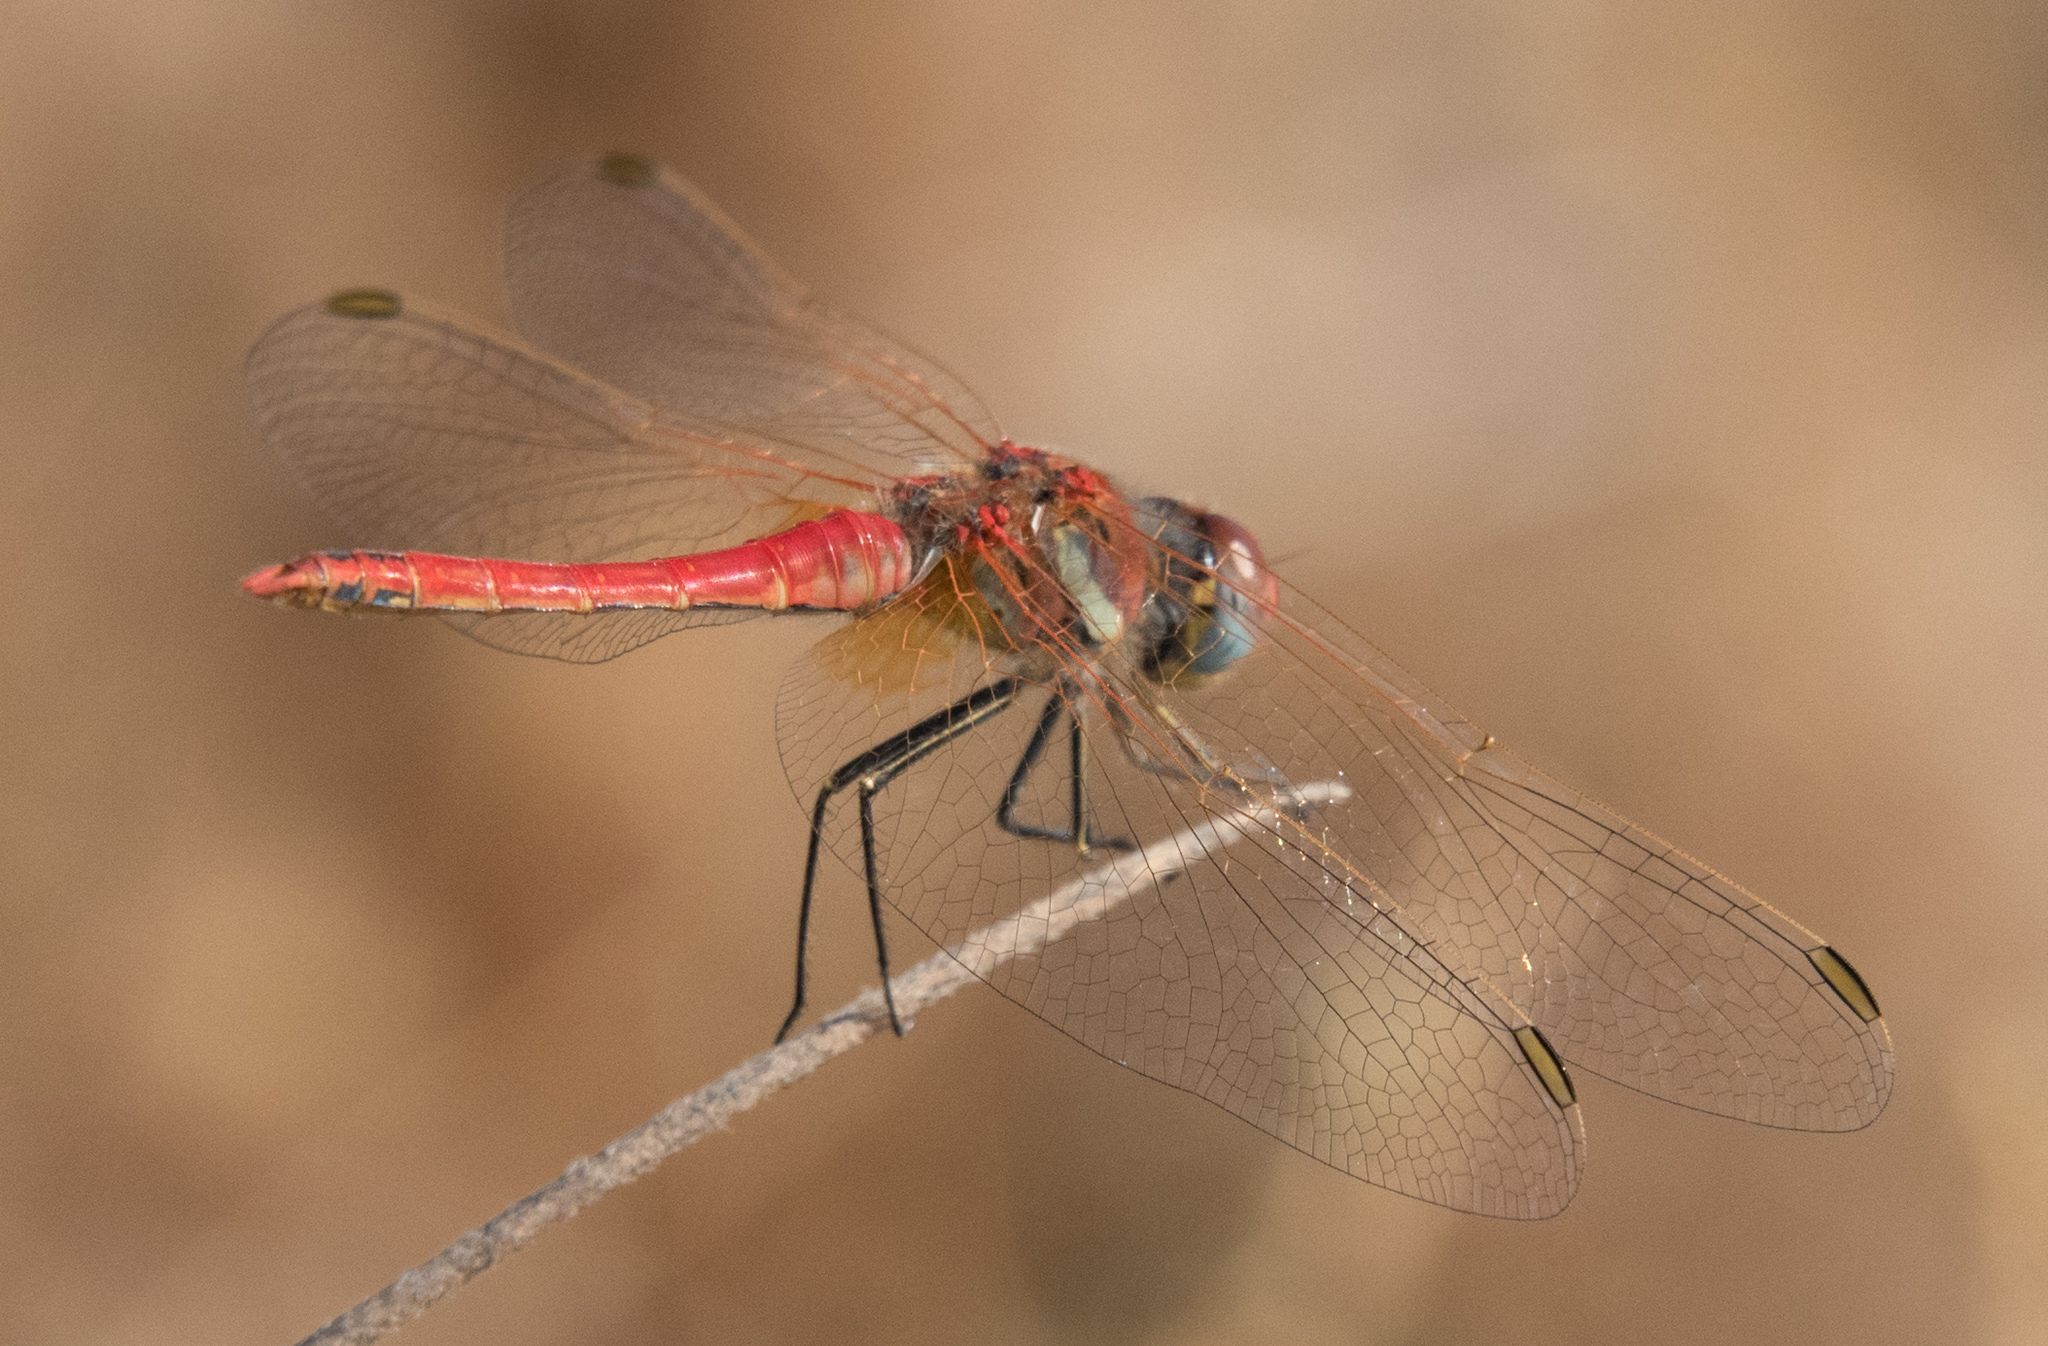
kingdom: Animalia
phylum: Arthropoda
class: Insecta
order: Odonata
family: Libellulidae
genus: Sympetrum
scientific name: Sympetrum fonscolombii
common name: Red-veined darter
